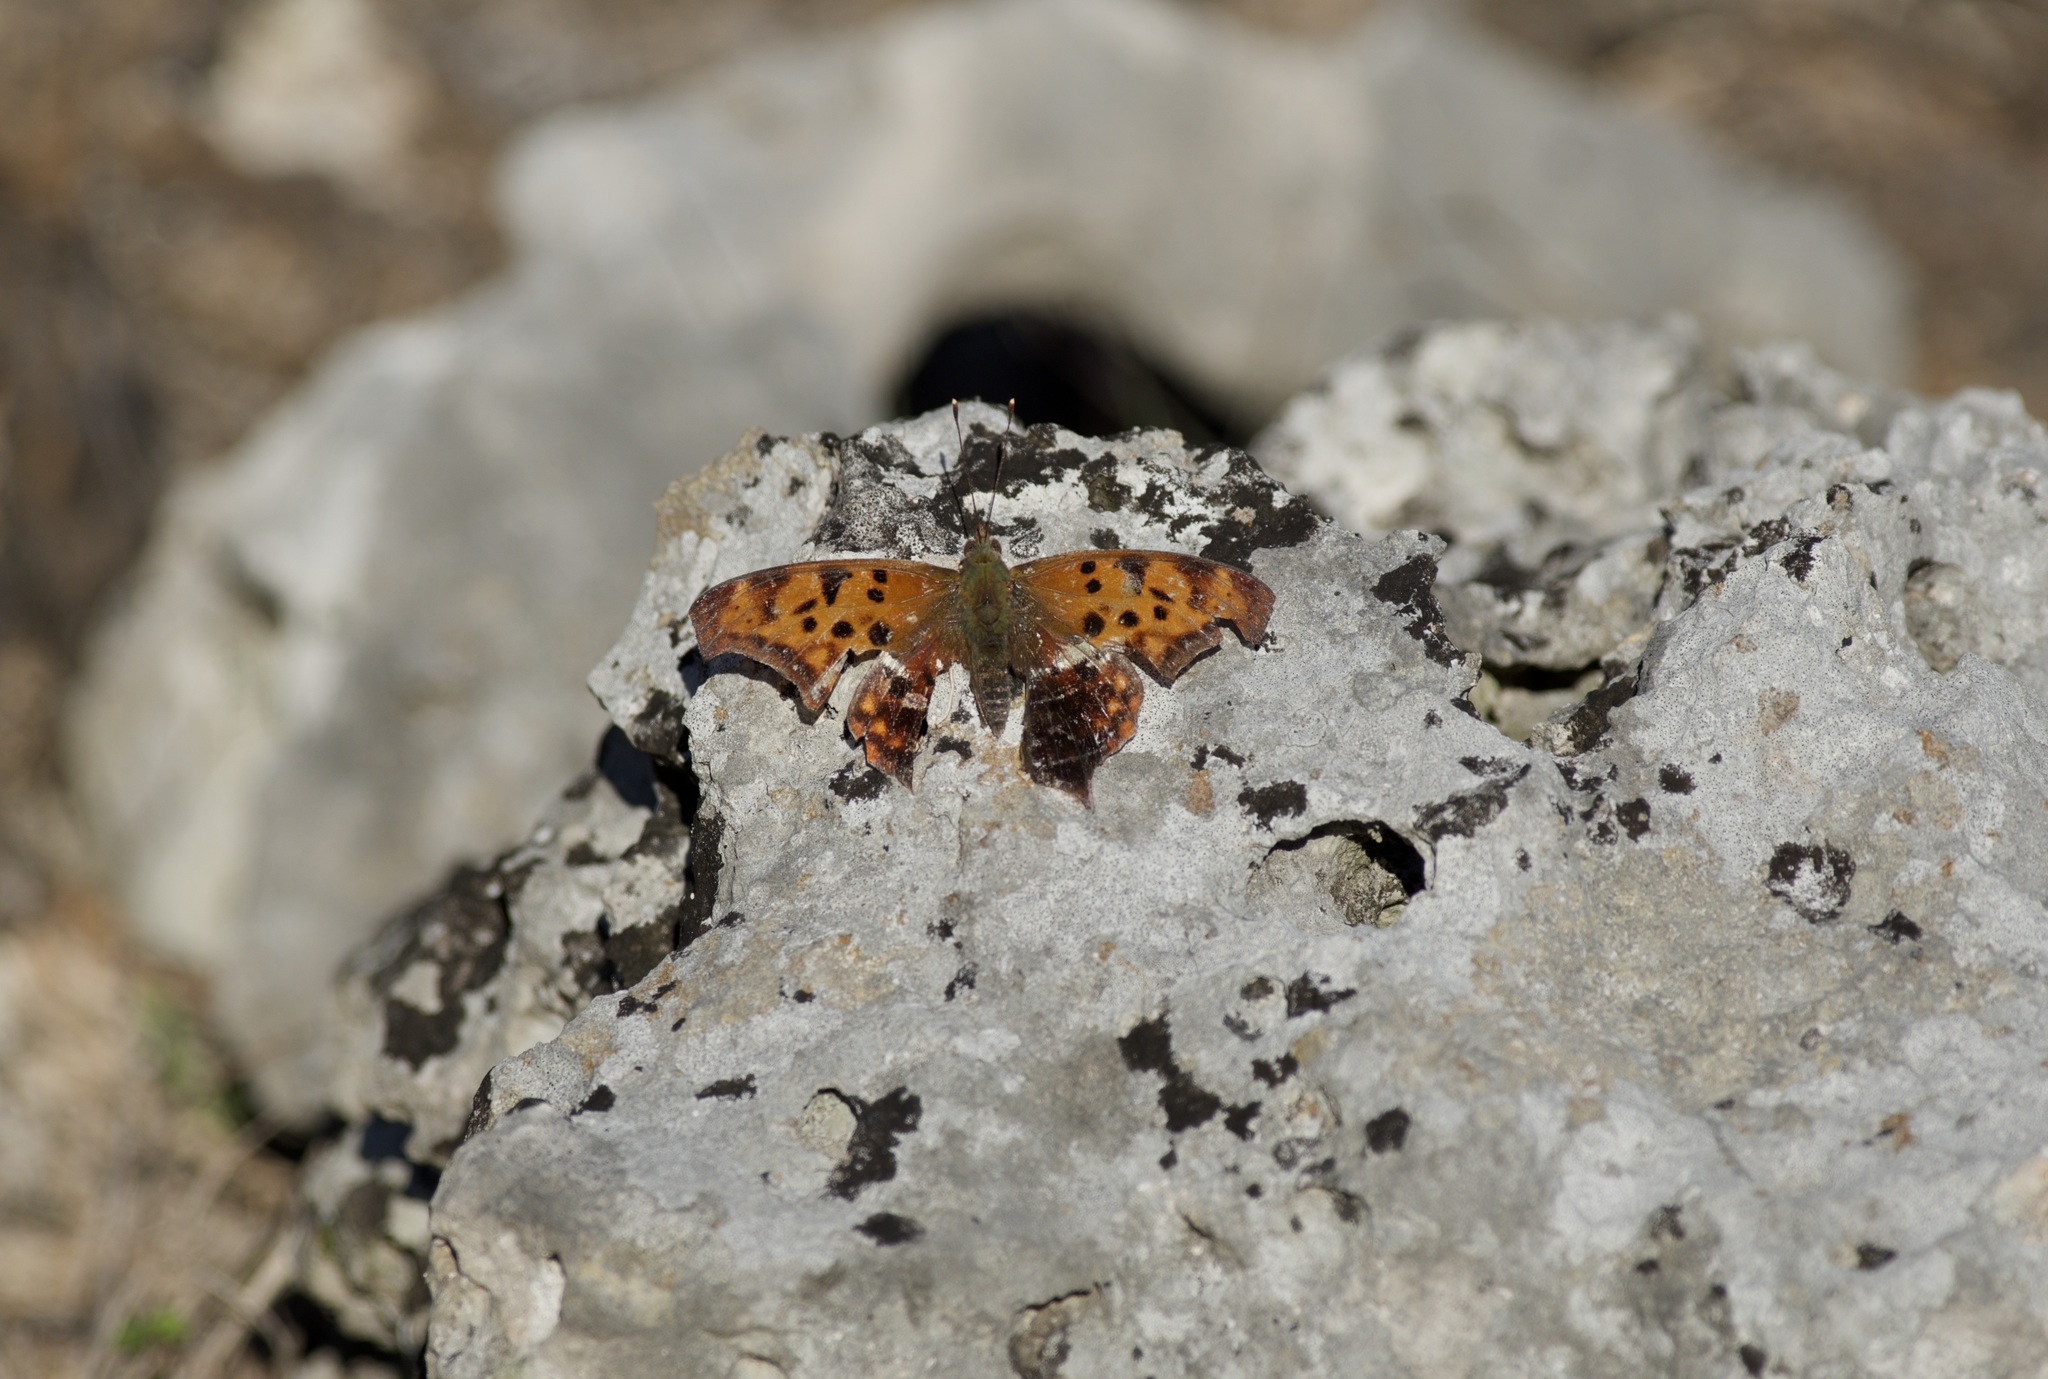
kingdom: Animalia
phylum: Arthropoda
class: Insecta
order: Lepidoptera
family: Nymphalidae
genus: Polygonia
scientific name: Polygonia interrogationis
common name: Question mark
